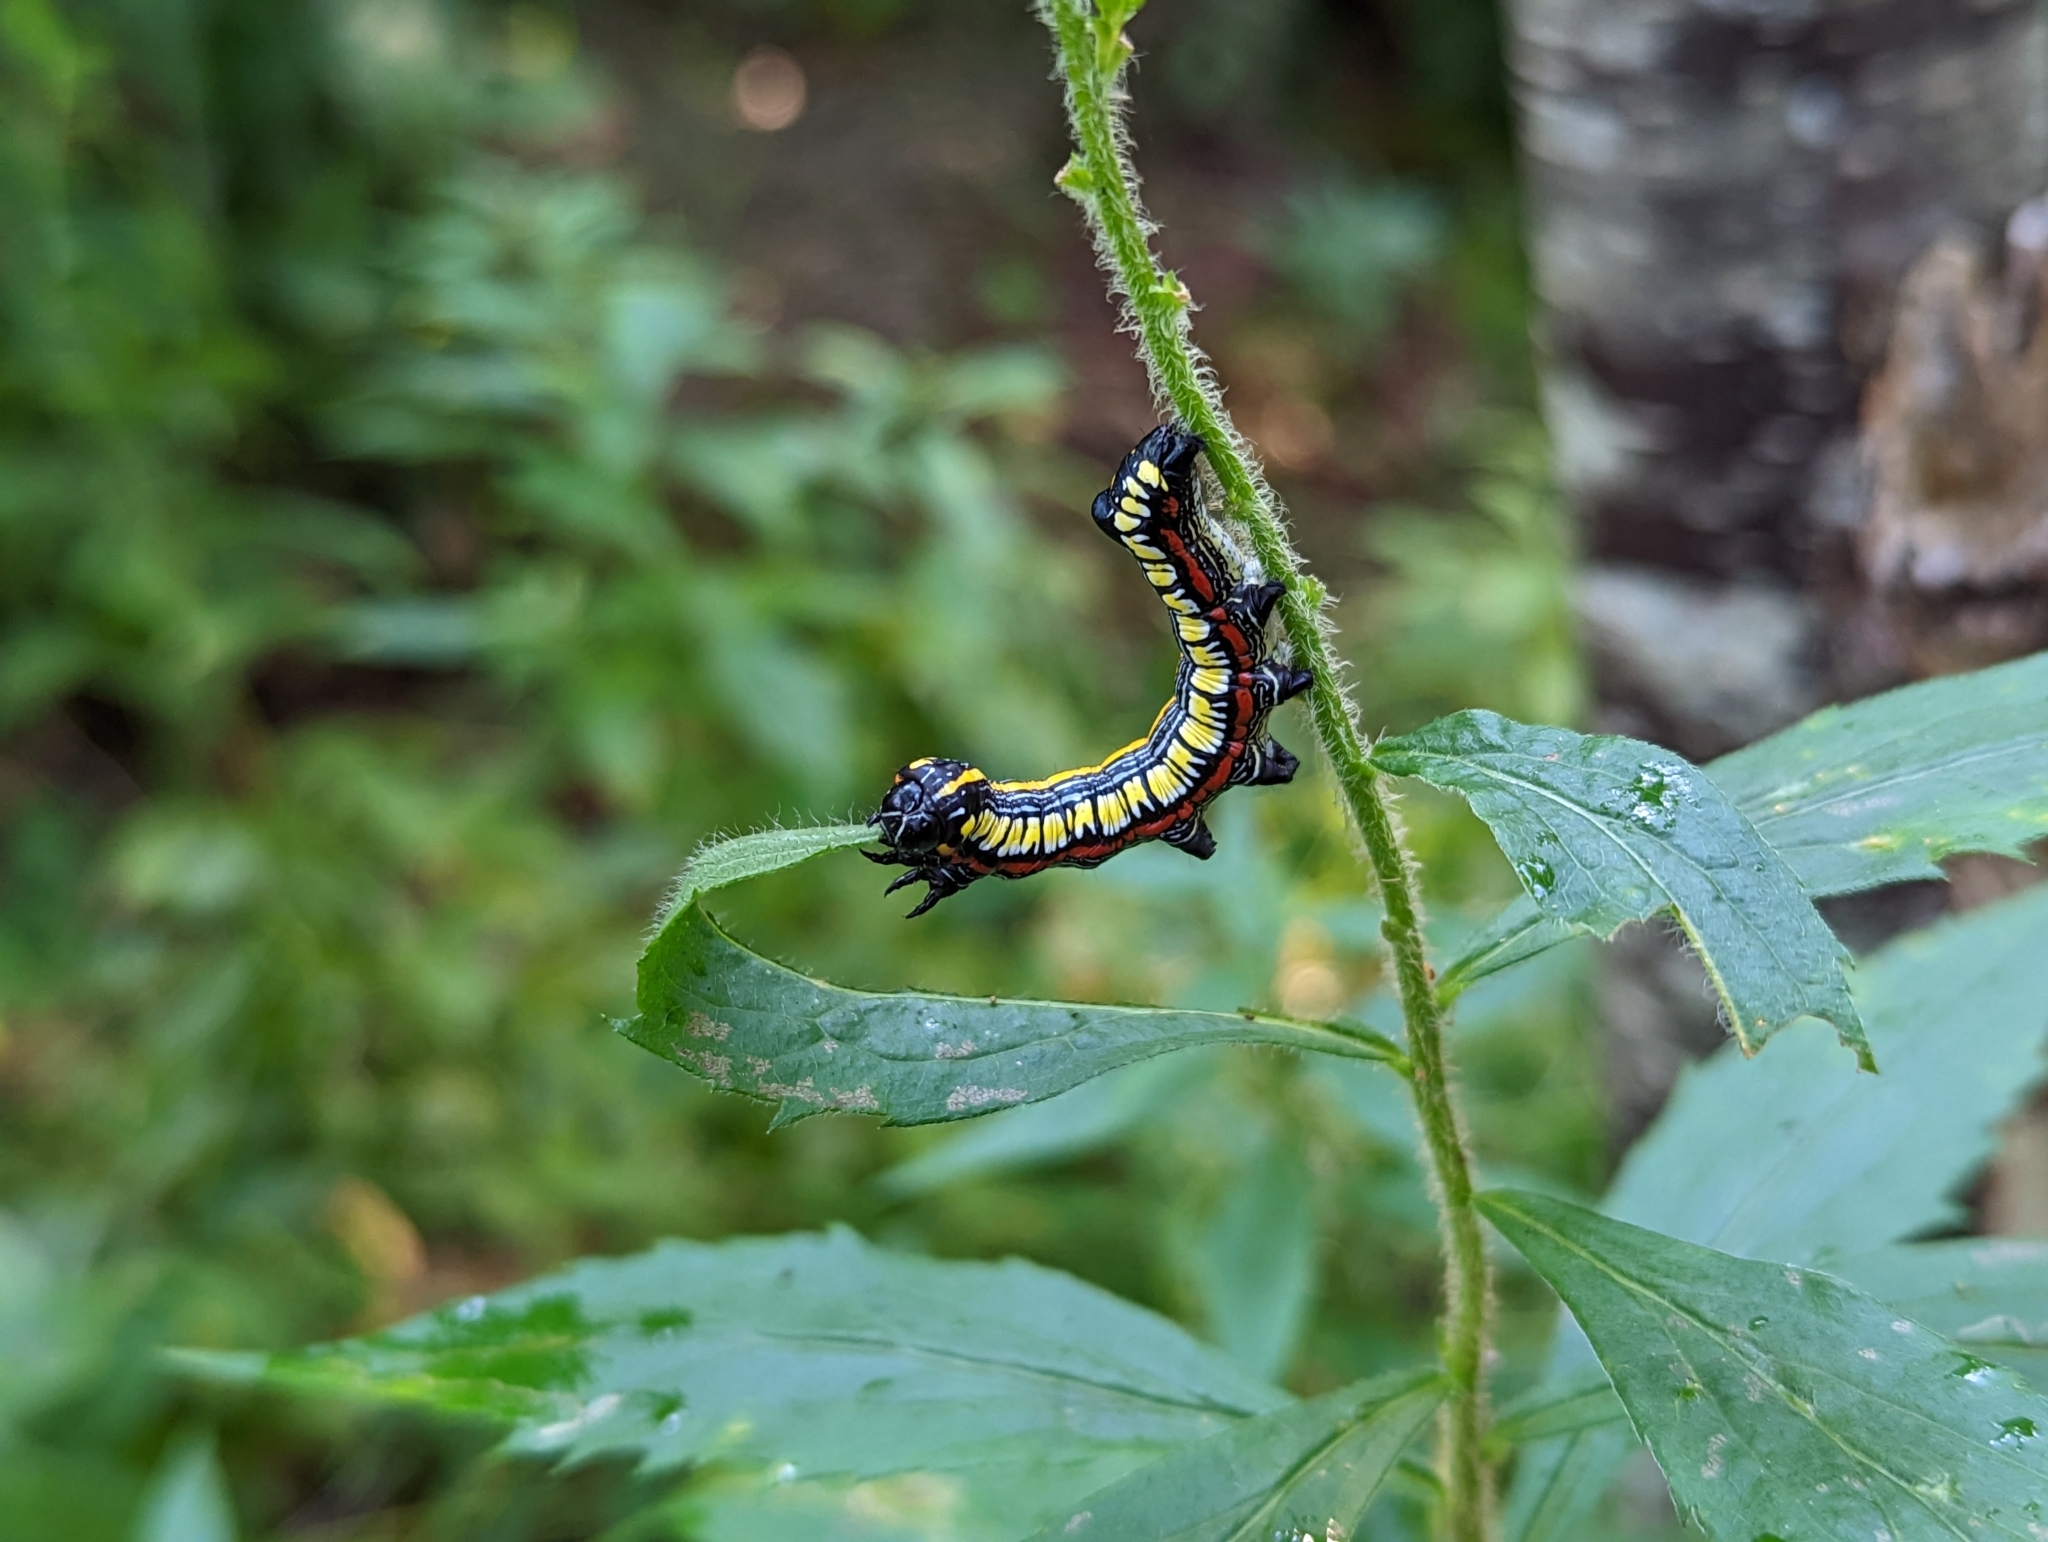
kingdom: Animalia
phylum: Arthropoda
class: Insecta
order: Lepidoptera
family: Noctuidae
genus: Cucullia
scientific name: Cucullia convexipennis
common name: Brown-hooded owlet
